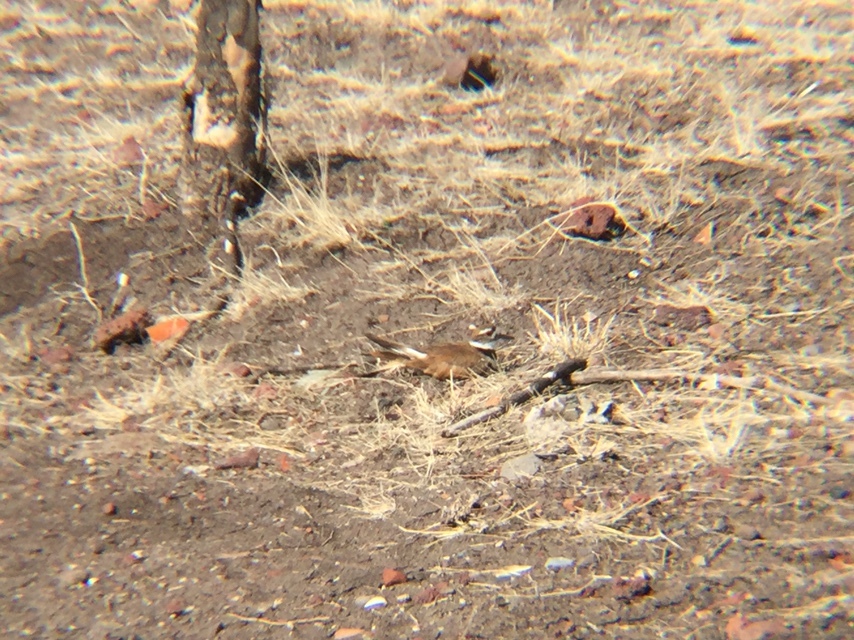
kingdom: Animalia
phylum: Chordata
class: Aves
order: Charadriiformes
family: Charadriidae
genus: Charadrius
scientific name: Charadrius vociferus
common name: Killdeer
